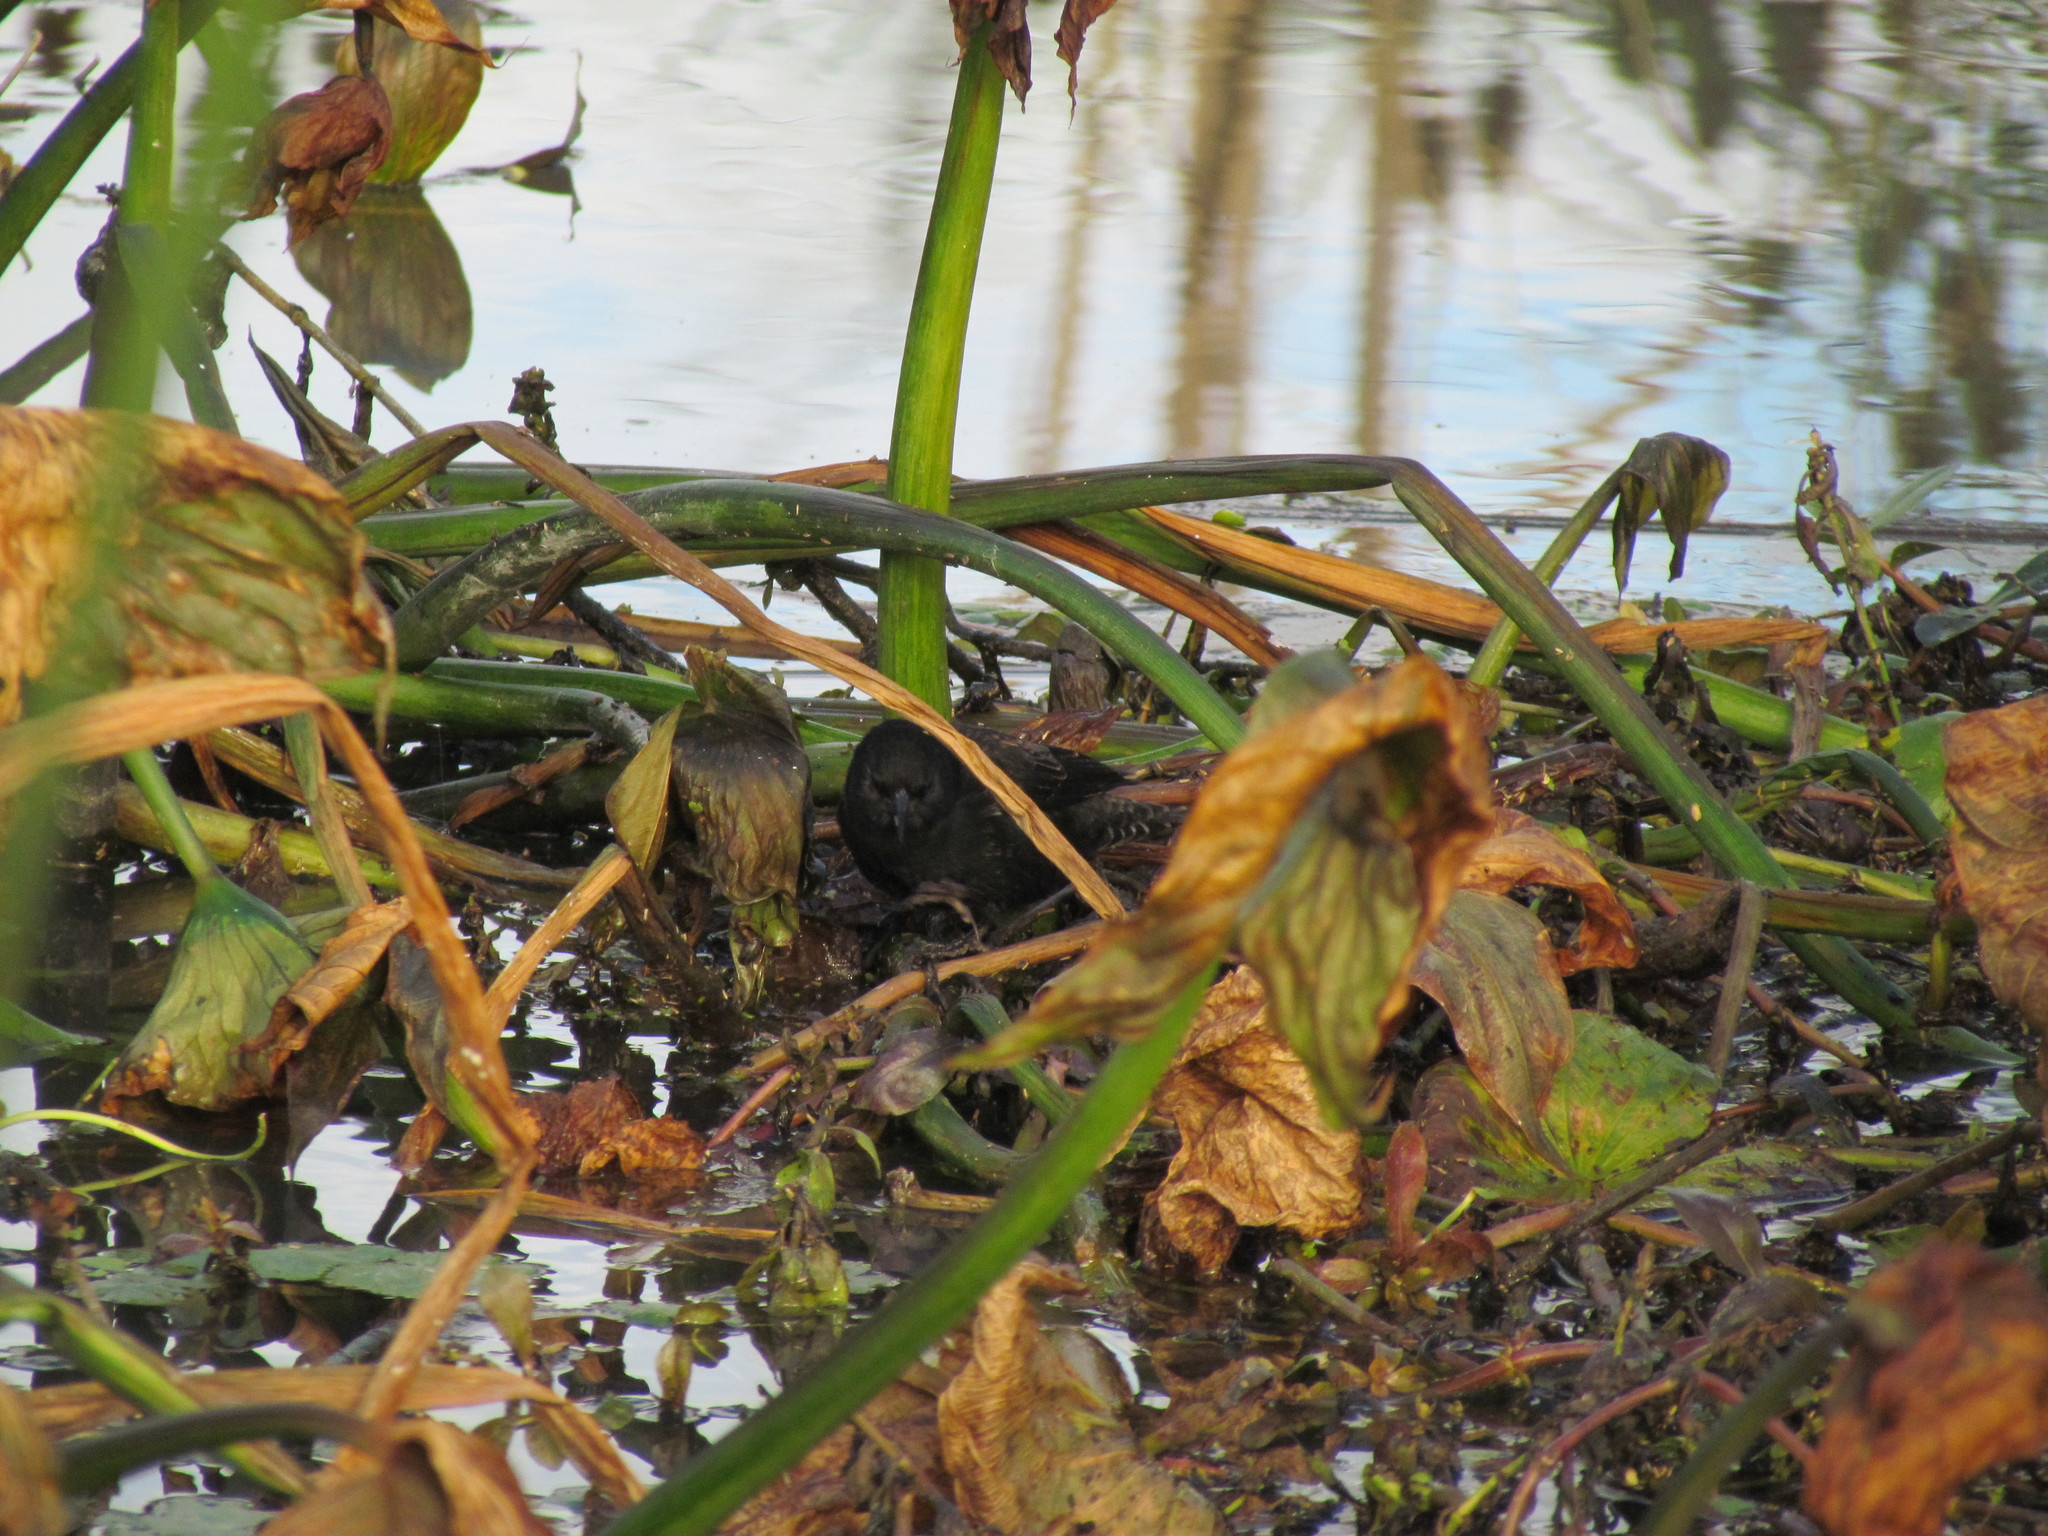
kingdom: Animalia
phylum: Chordata
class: Aves
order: Passeriformes
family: Icteridae
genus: Agelasticus
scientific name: Agelasticus thilius
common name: Yellow-winged blackbird
